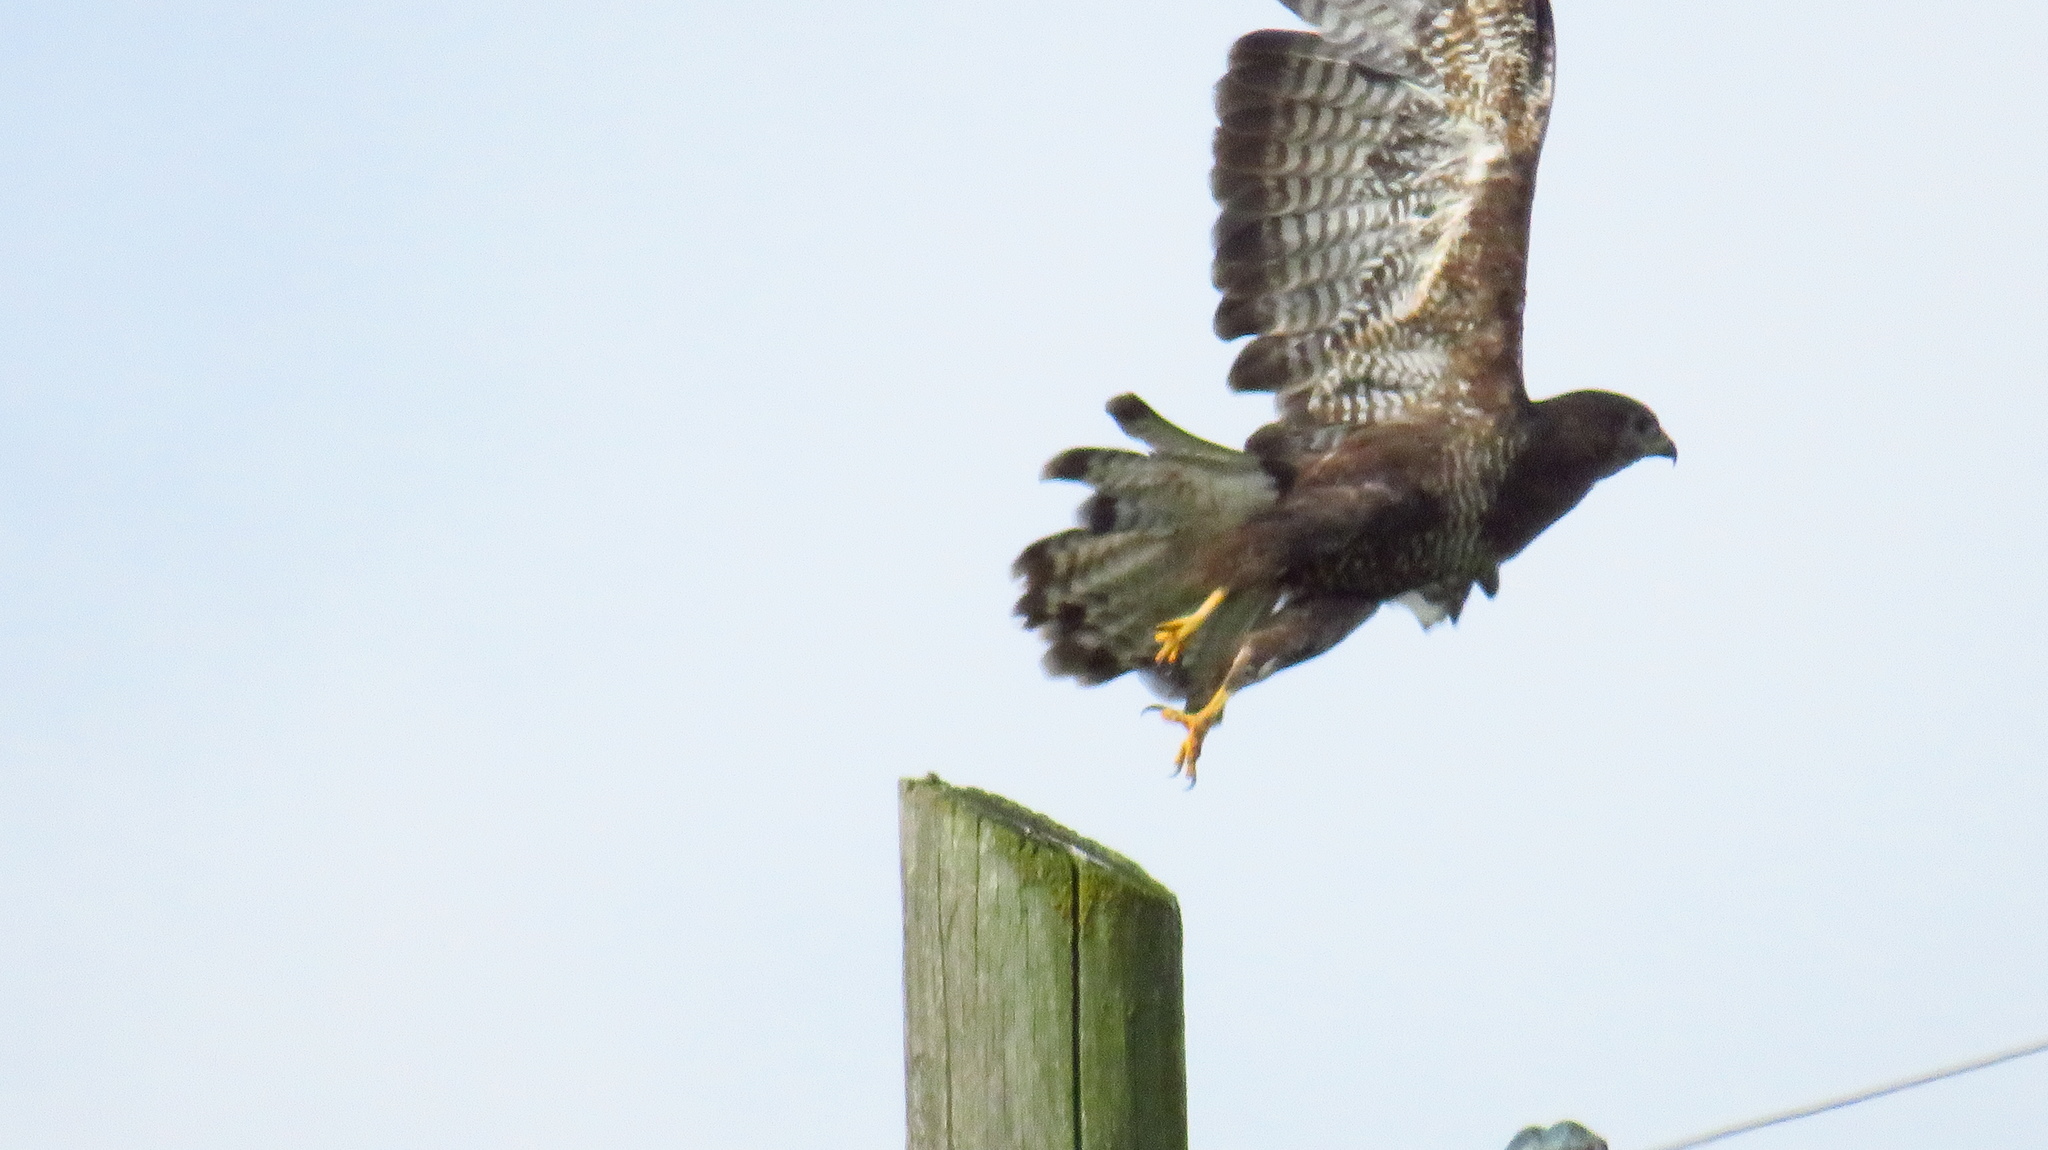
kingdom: Animalia
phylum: Chordata
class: Aves
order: Accipitriformes
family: Accipitridae
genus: Buteo
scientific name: Buteo buteo
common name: Common buzzard
